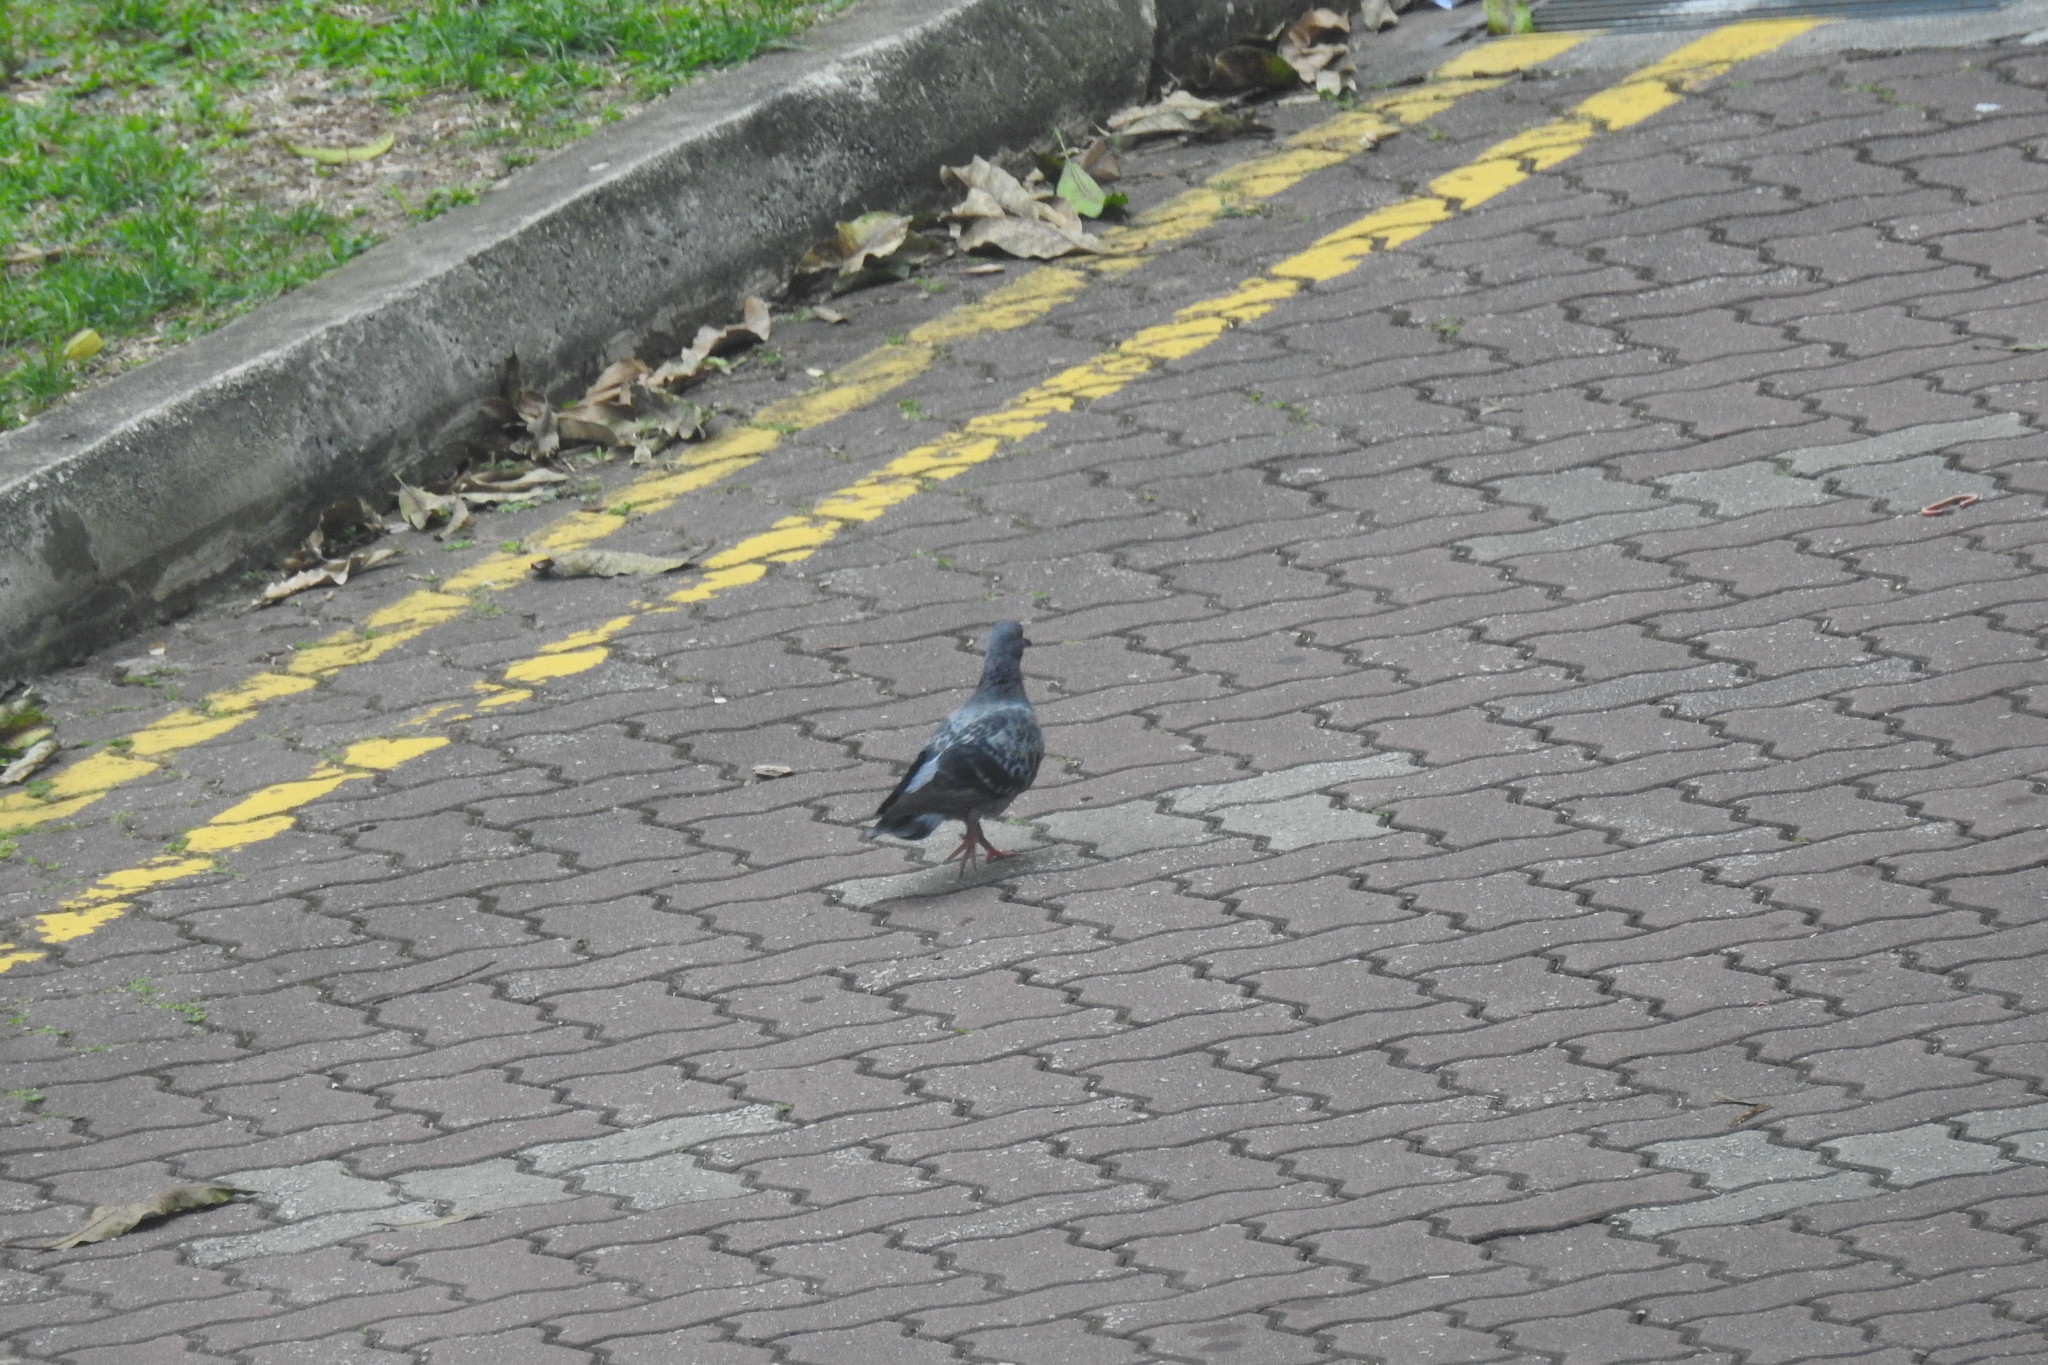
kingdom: Animalia
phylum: Chordata
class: Aves
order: Columbiformes
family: Columbidae
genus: Columba
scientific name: Columba livia
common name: Rock pigeon
